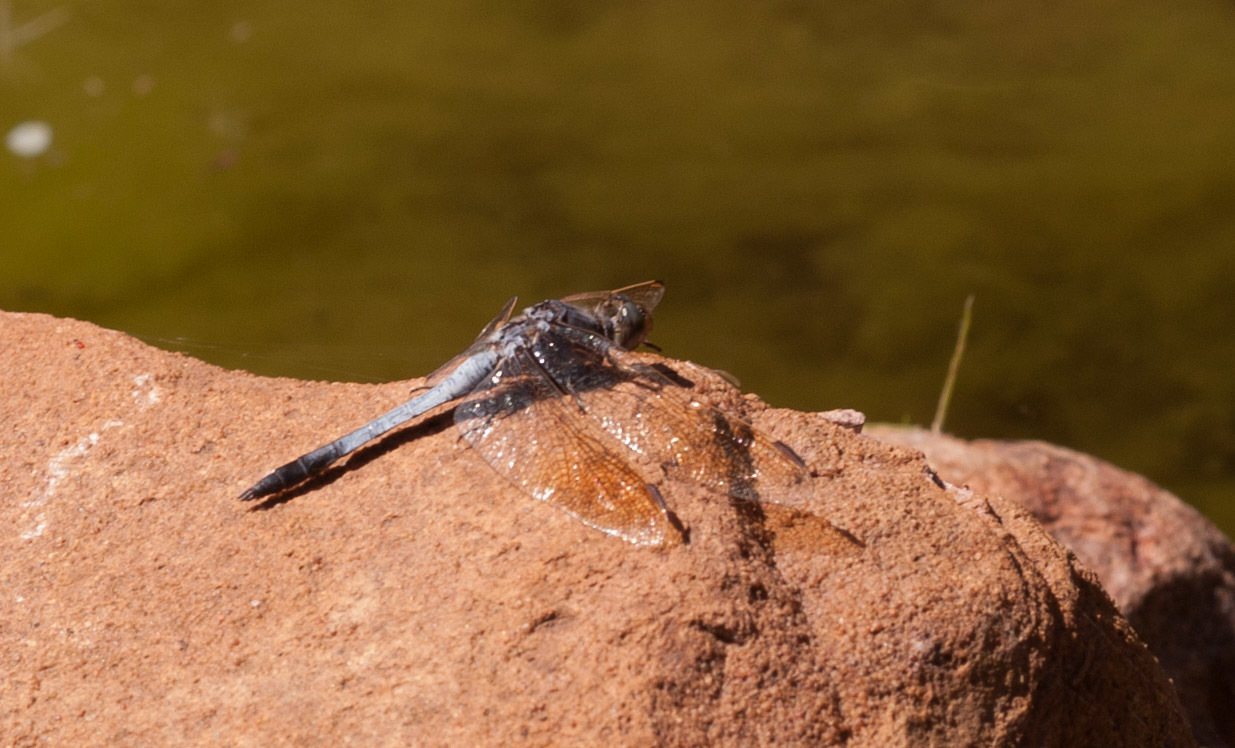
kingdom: Animalia
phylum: Arthropoda
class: Insecta
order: Odonata
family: Libellulidae
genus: Orthetrum
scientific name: Orthetrum caledonicum
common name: Blue skimmer
